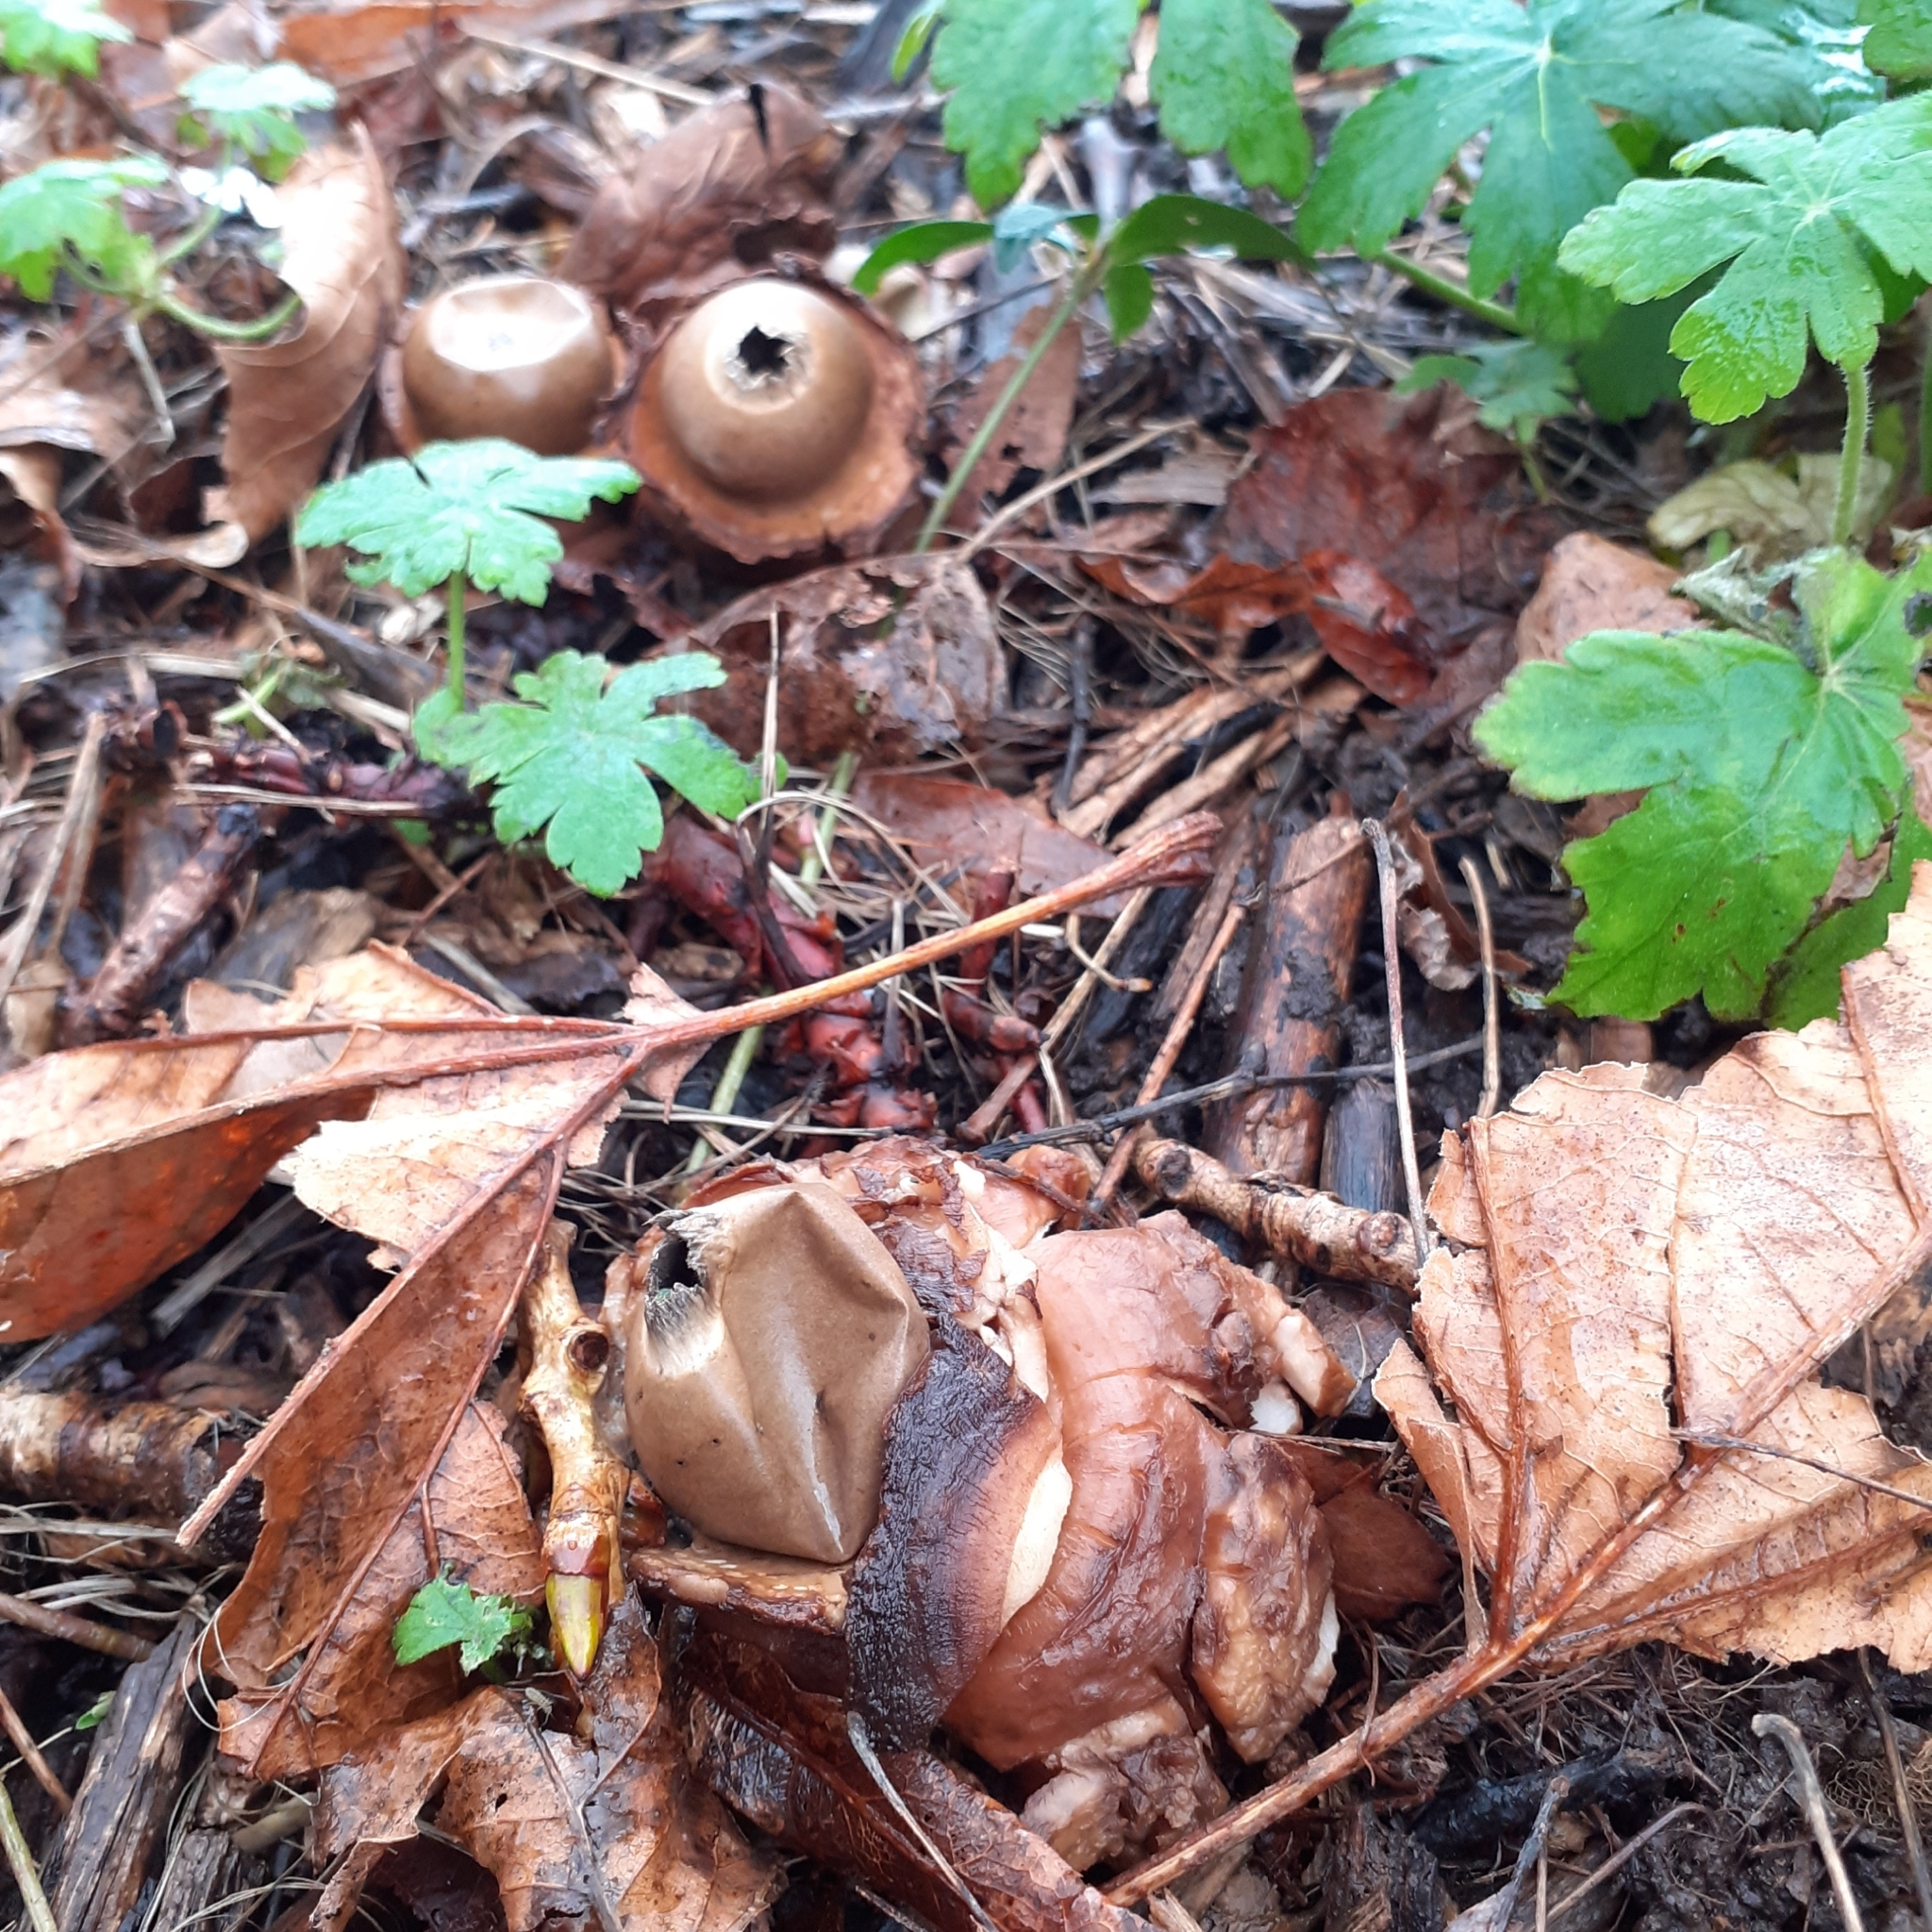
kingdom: Fungi
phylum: Basidiomycota
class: Agaricomycetes
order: Geastrales
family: Geastraceae
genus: Geastrum
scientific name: Geastrum michelianum
